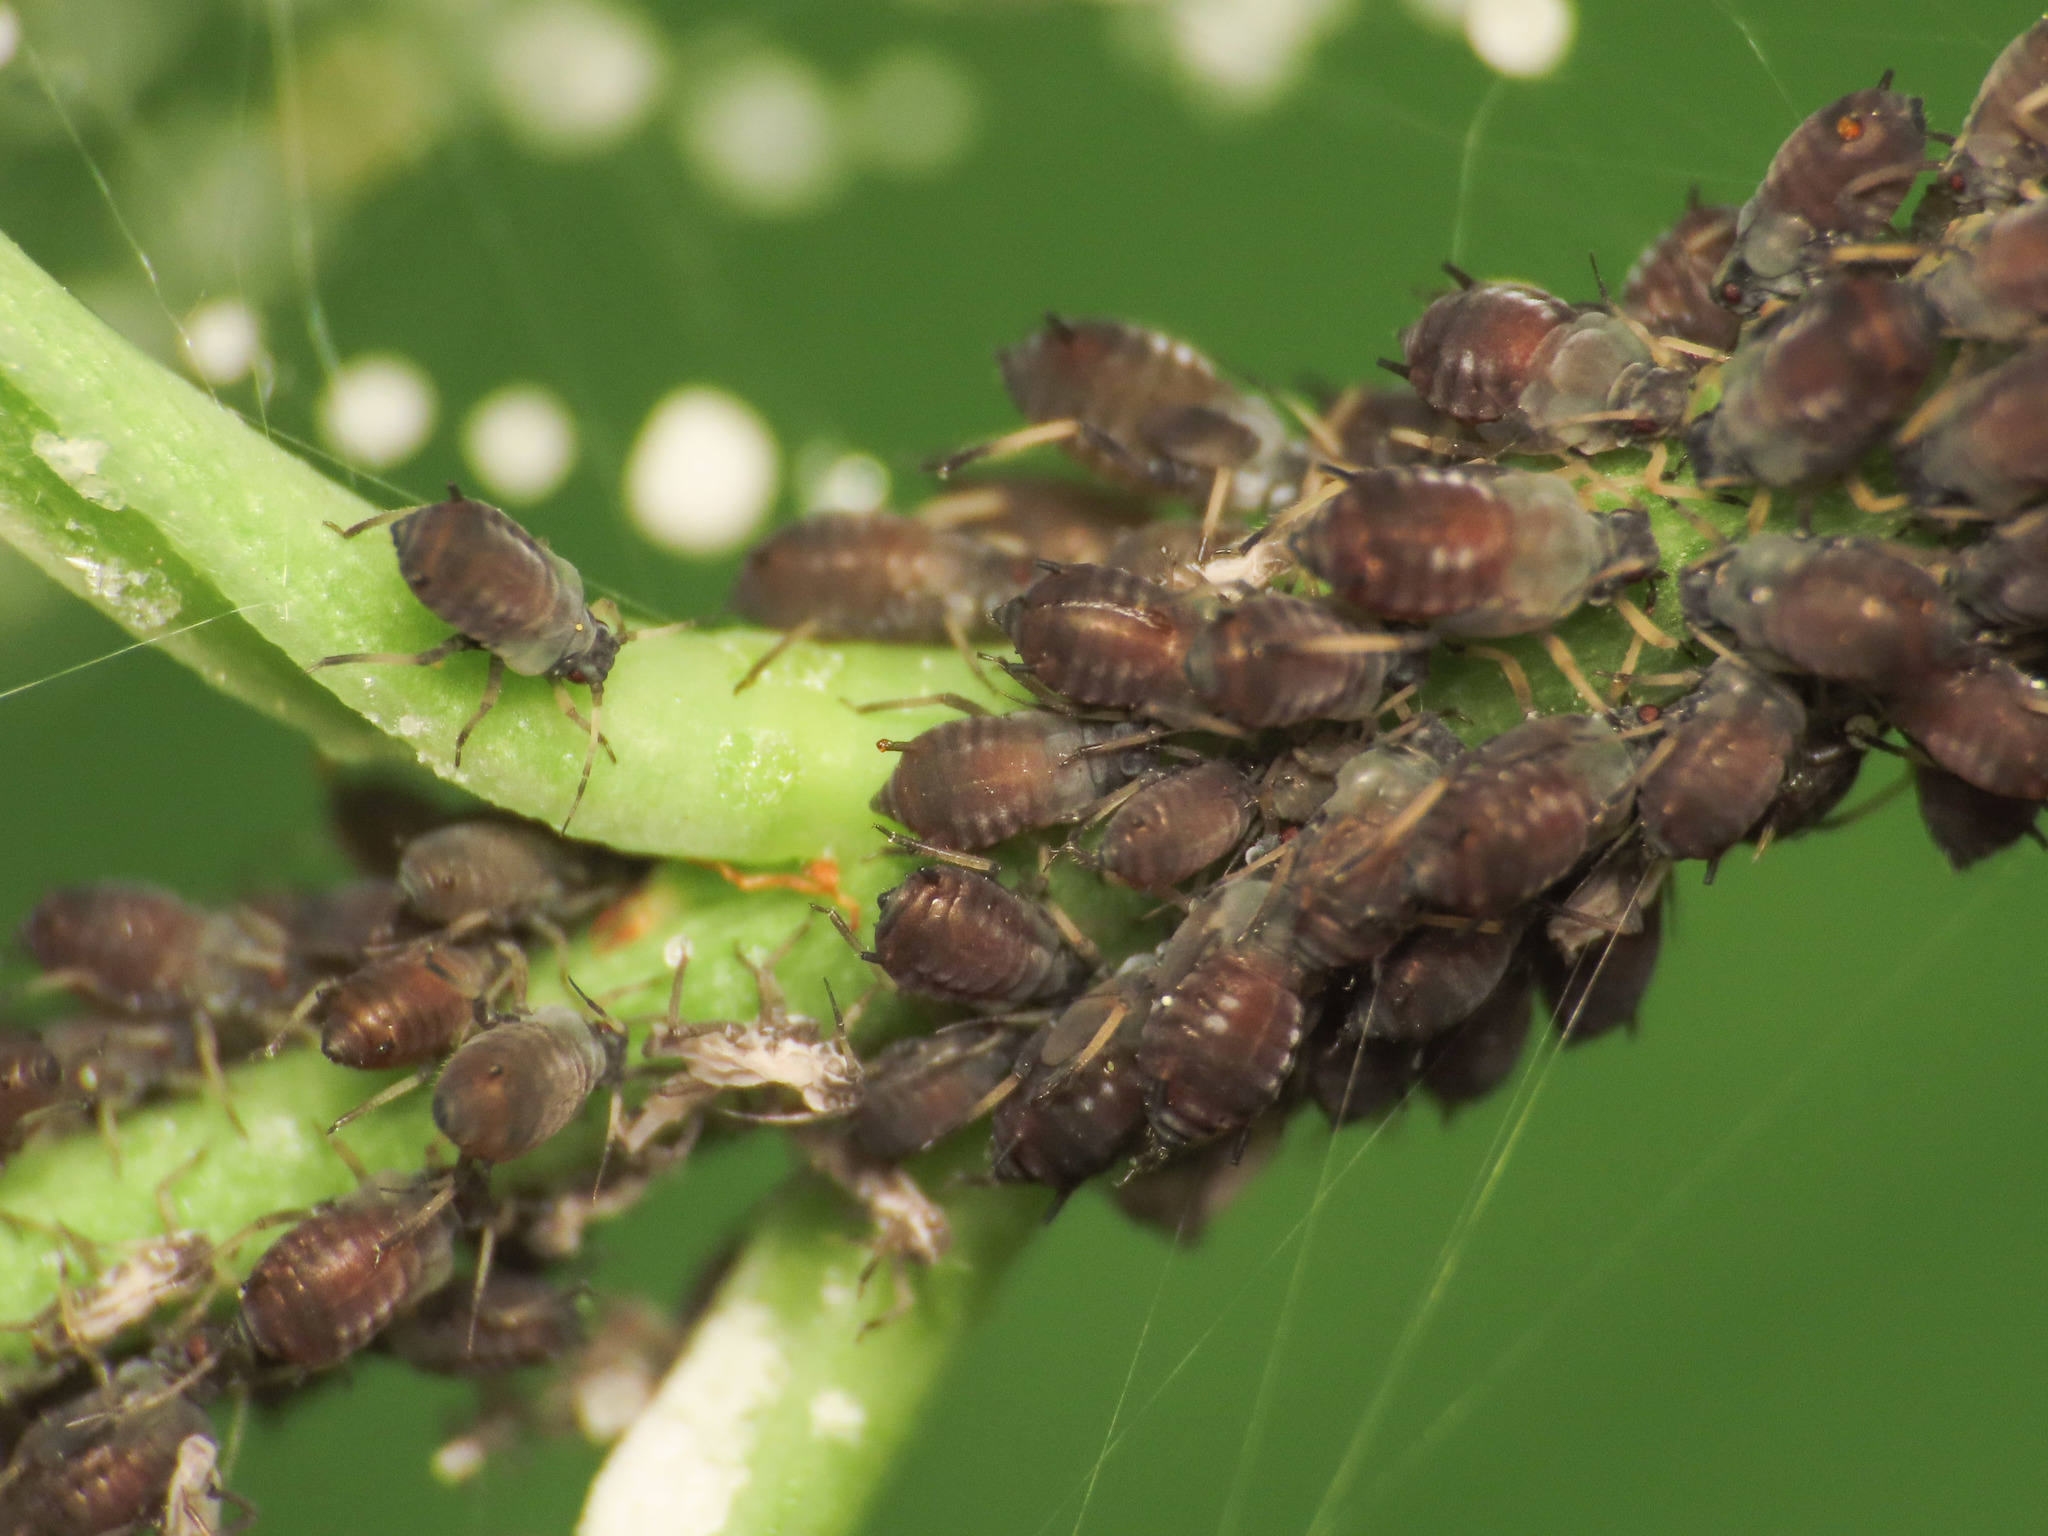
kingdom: Animalia
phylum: Arthropoda
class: Insecta
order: Hemiptera
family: Aphididae
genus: Aphis
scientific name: Aphis fabae
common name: Bean aphid
